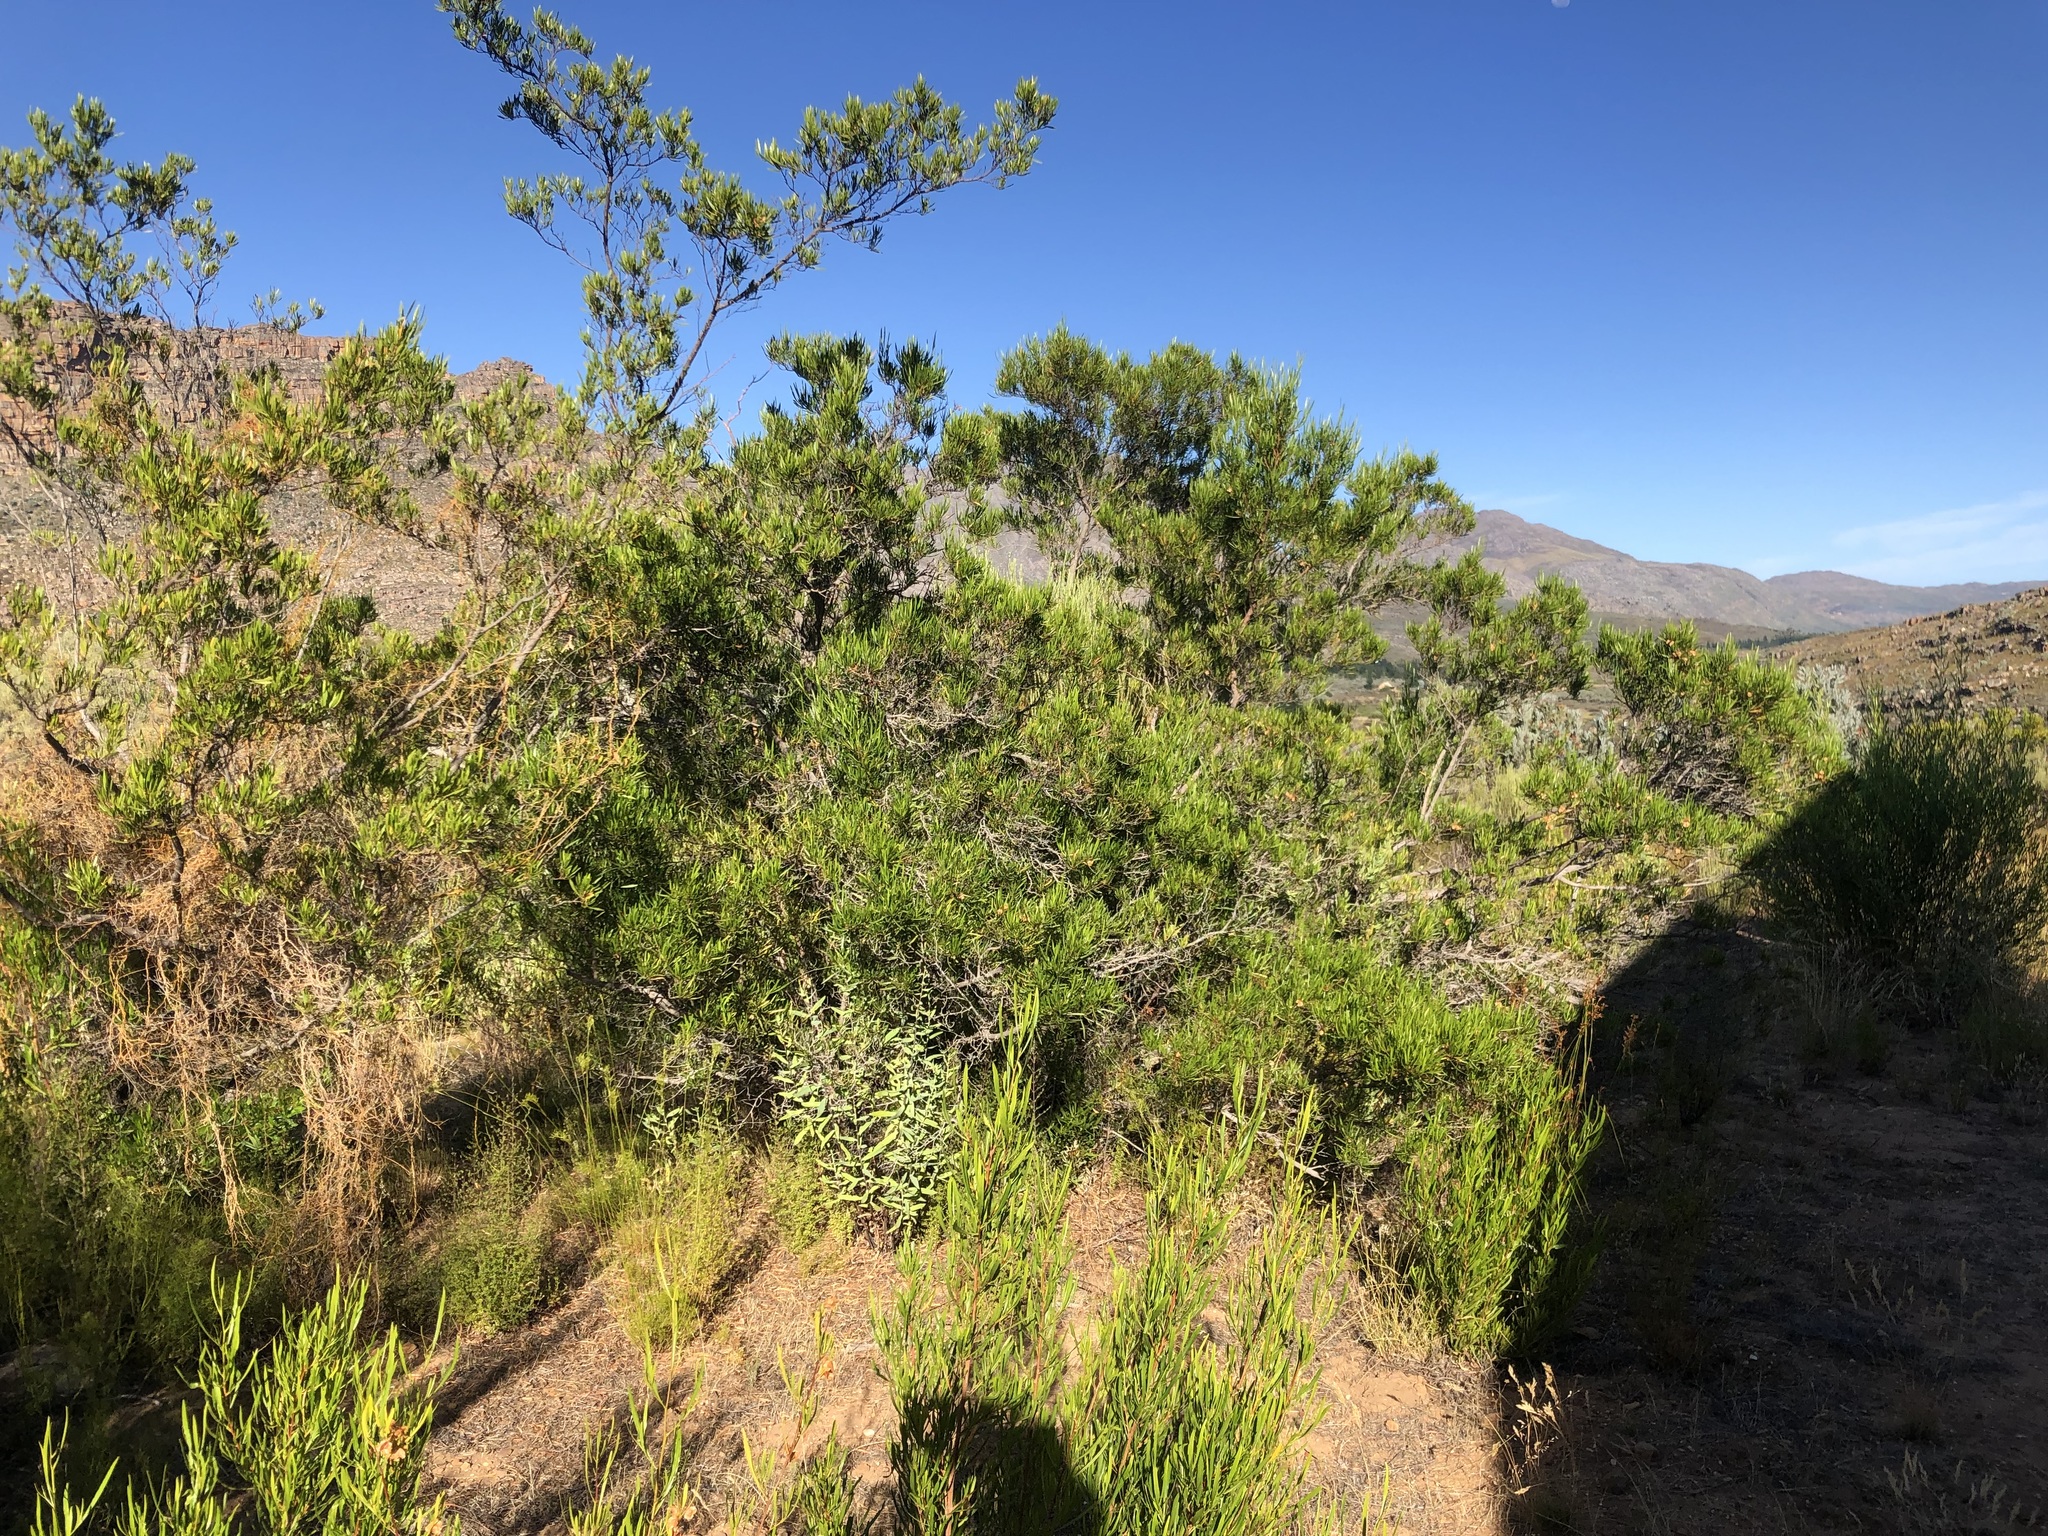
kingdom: Plantae
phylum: Tracheophyta
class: Magnoliopsida
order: Sapindales
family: Sapindaceae
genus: Dodonaea
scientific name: Dodonaea viscosa
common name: Hopbush
